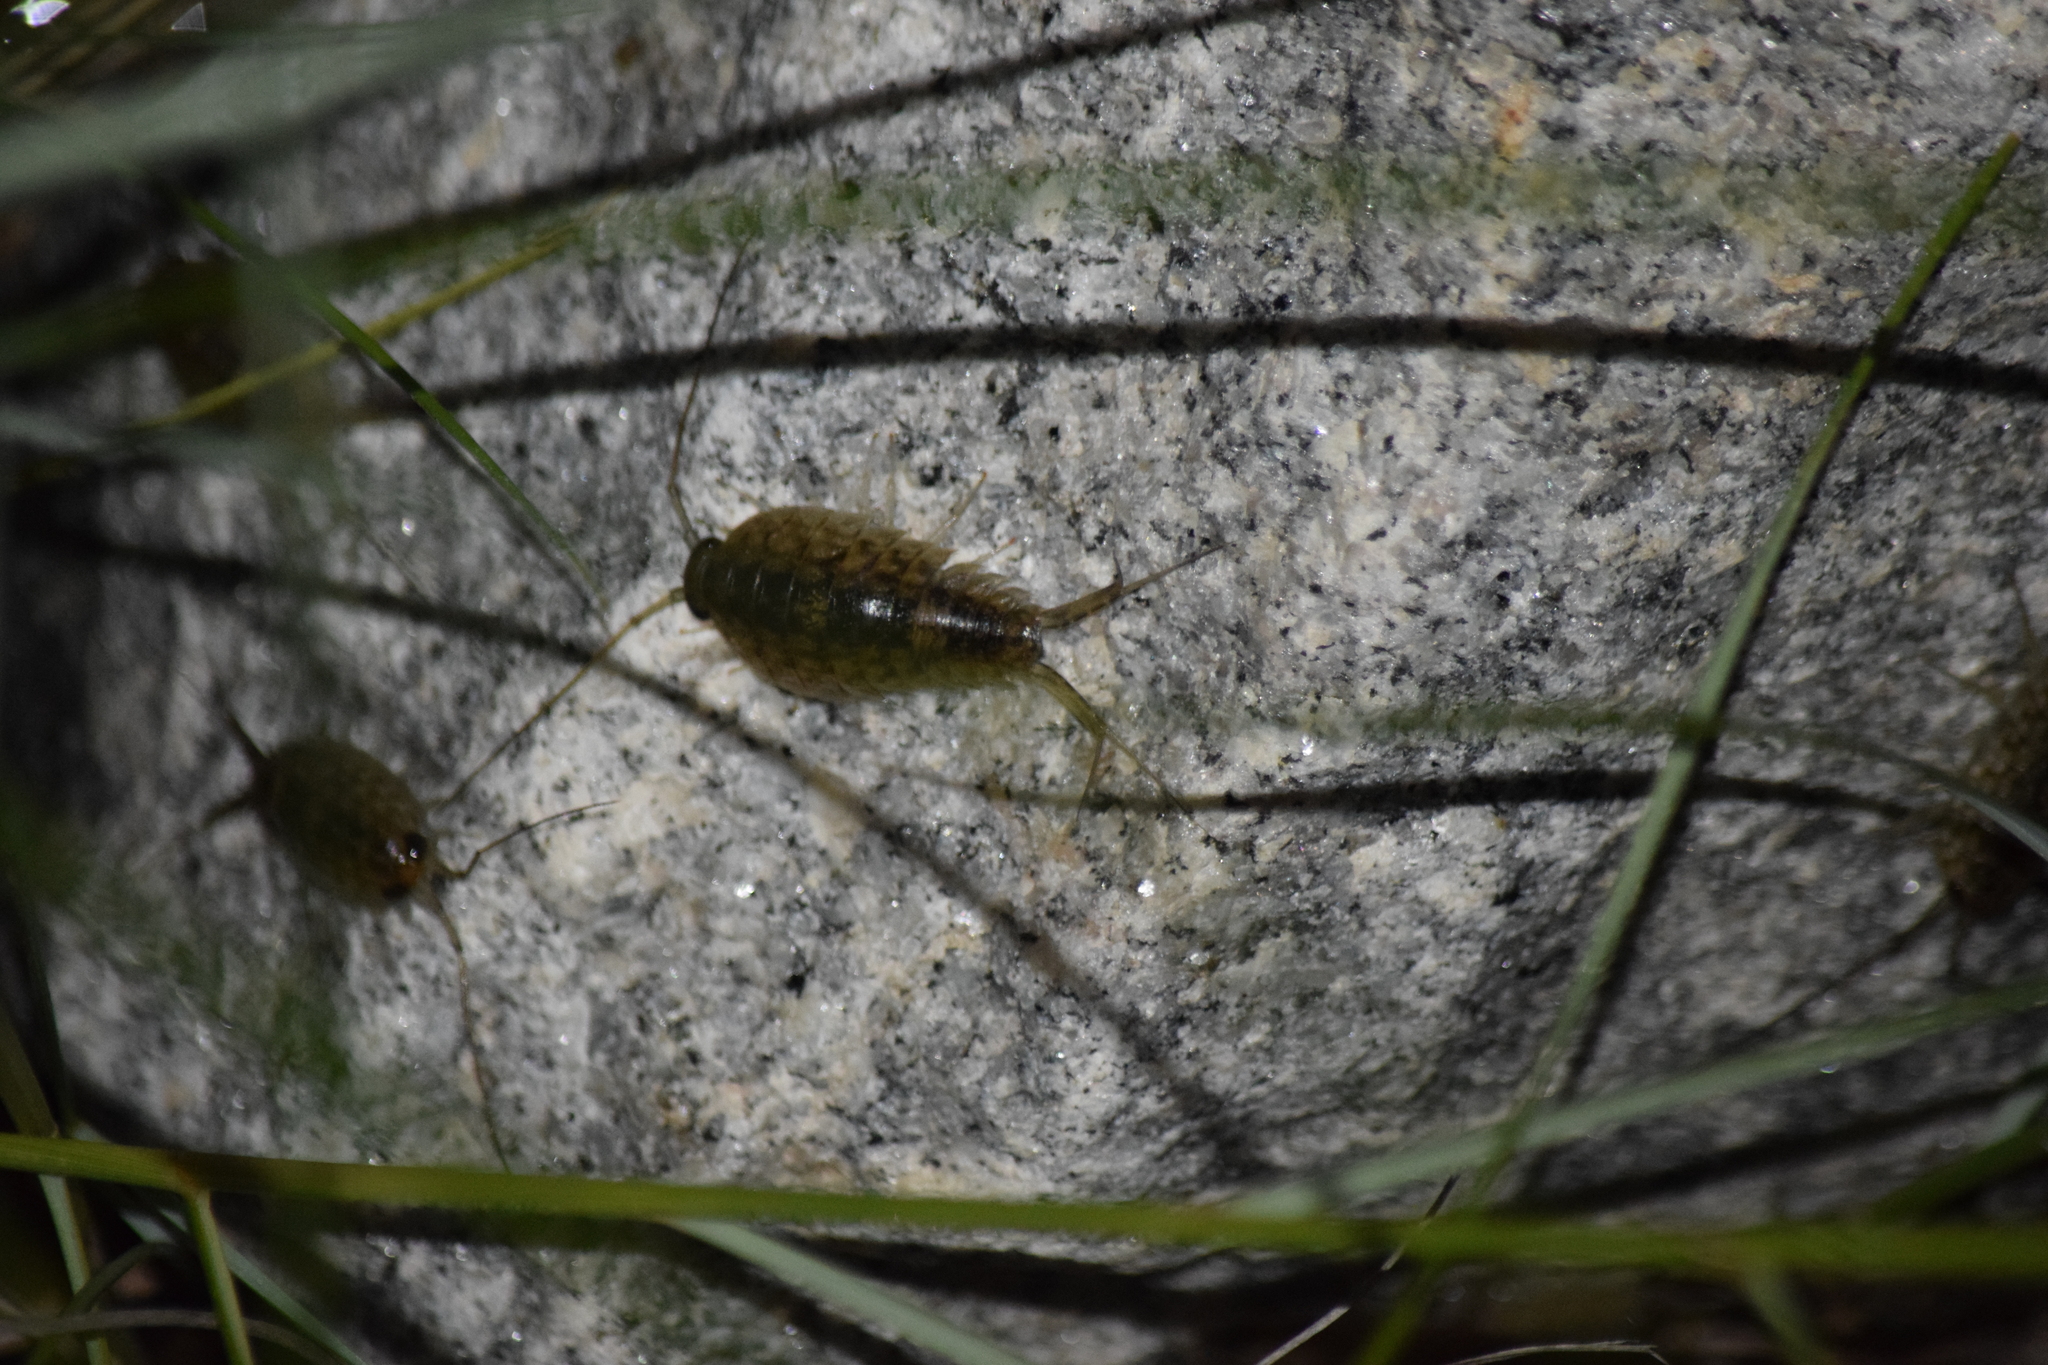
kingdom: Animalia
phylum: Arthropoda
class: Malacostraca
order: Isopoda
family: Ligiidae
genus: Ligia
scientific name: Ligia exotica
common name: Wharf roach
